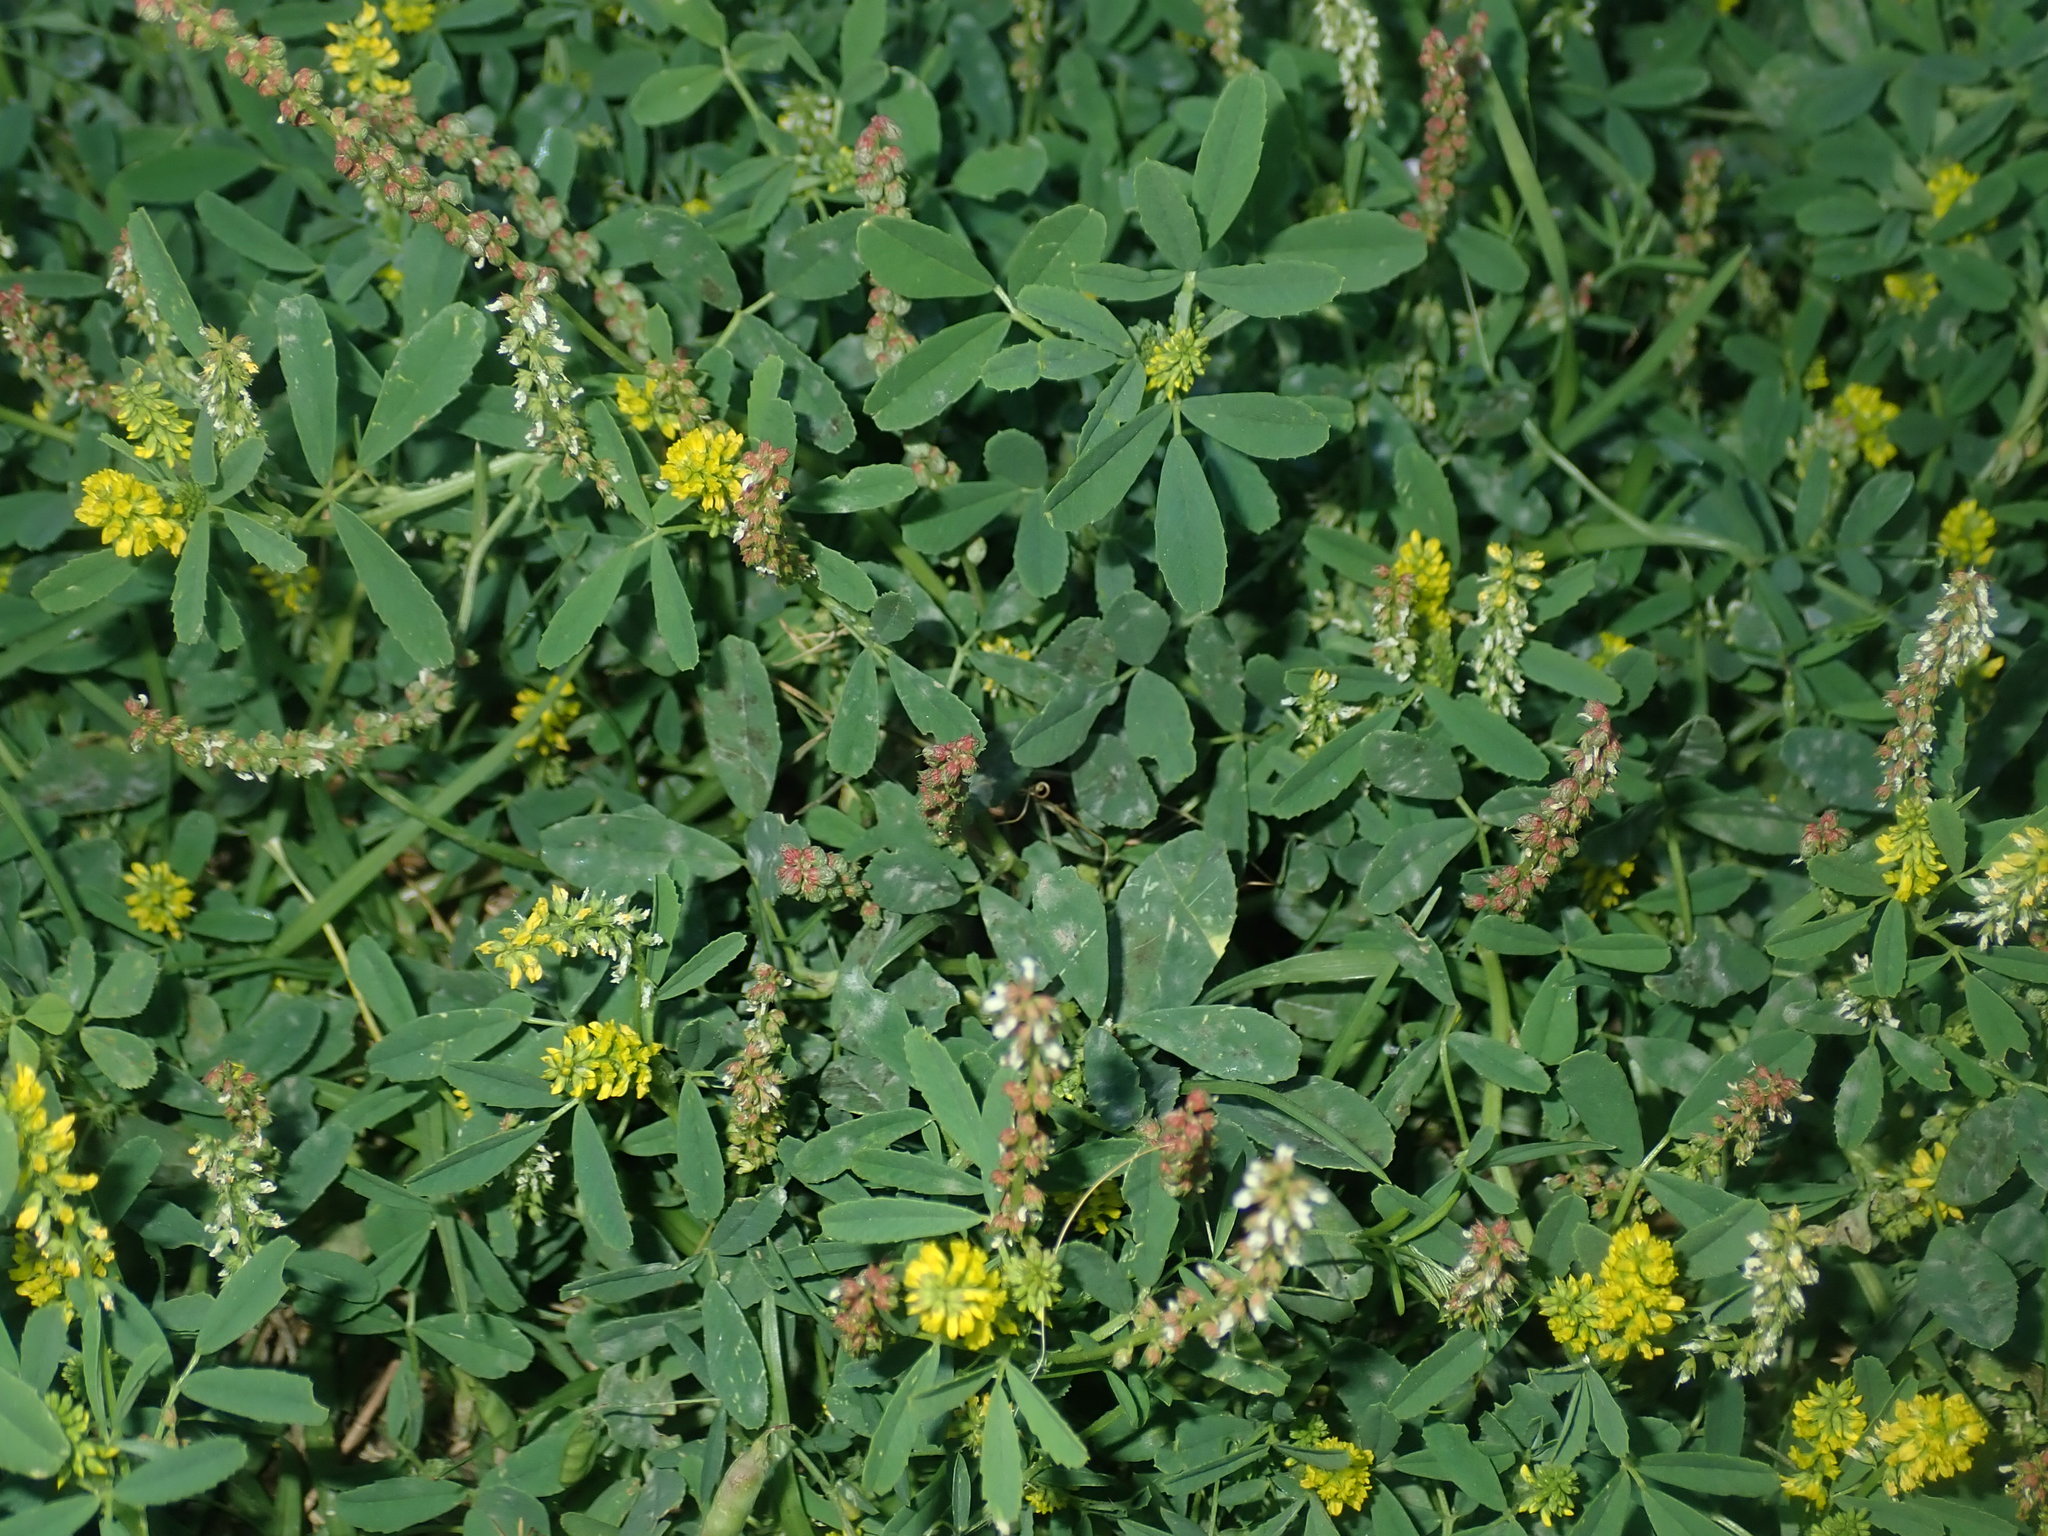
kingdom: Plantae
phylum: Tracheophyta
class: Magnoliopsida
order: Fabales
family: Fabaceae
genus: Melilotus
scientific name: Melilotus indicus
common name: Small melilot
